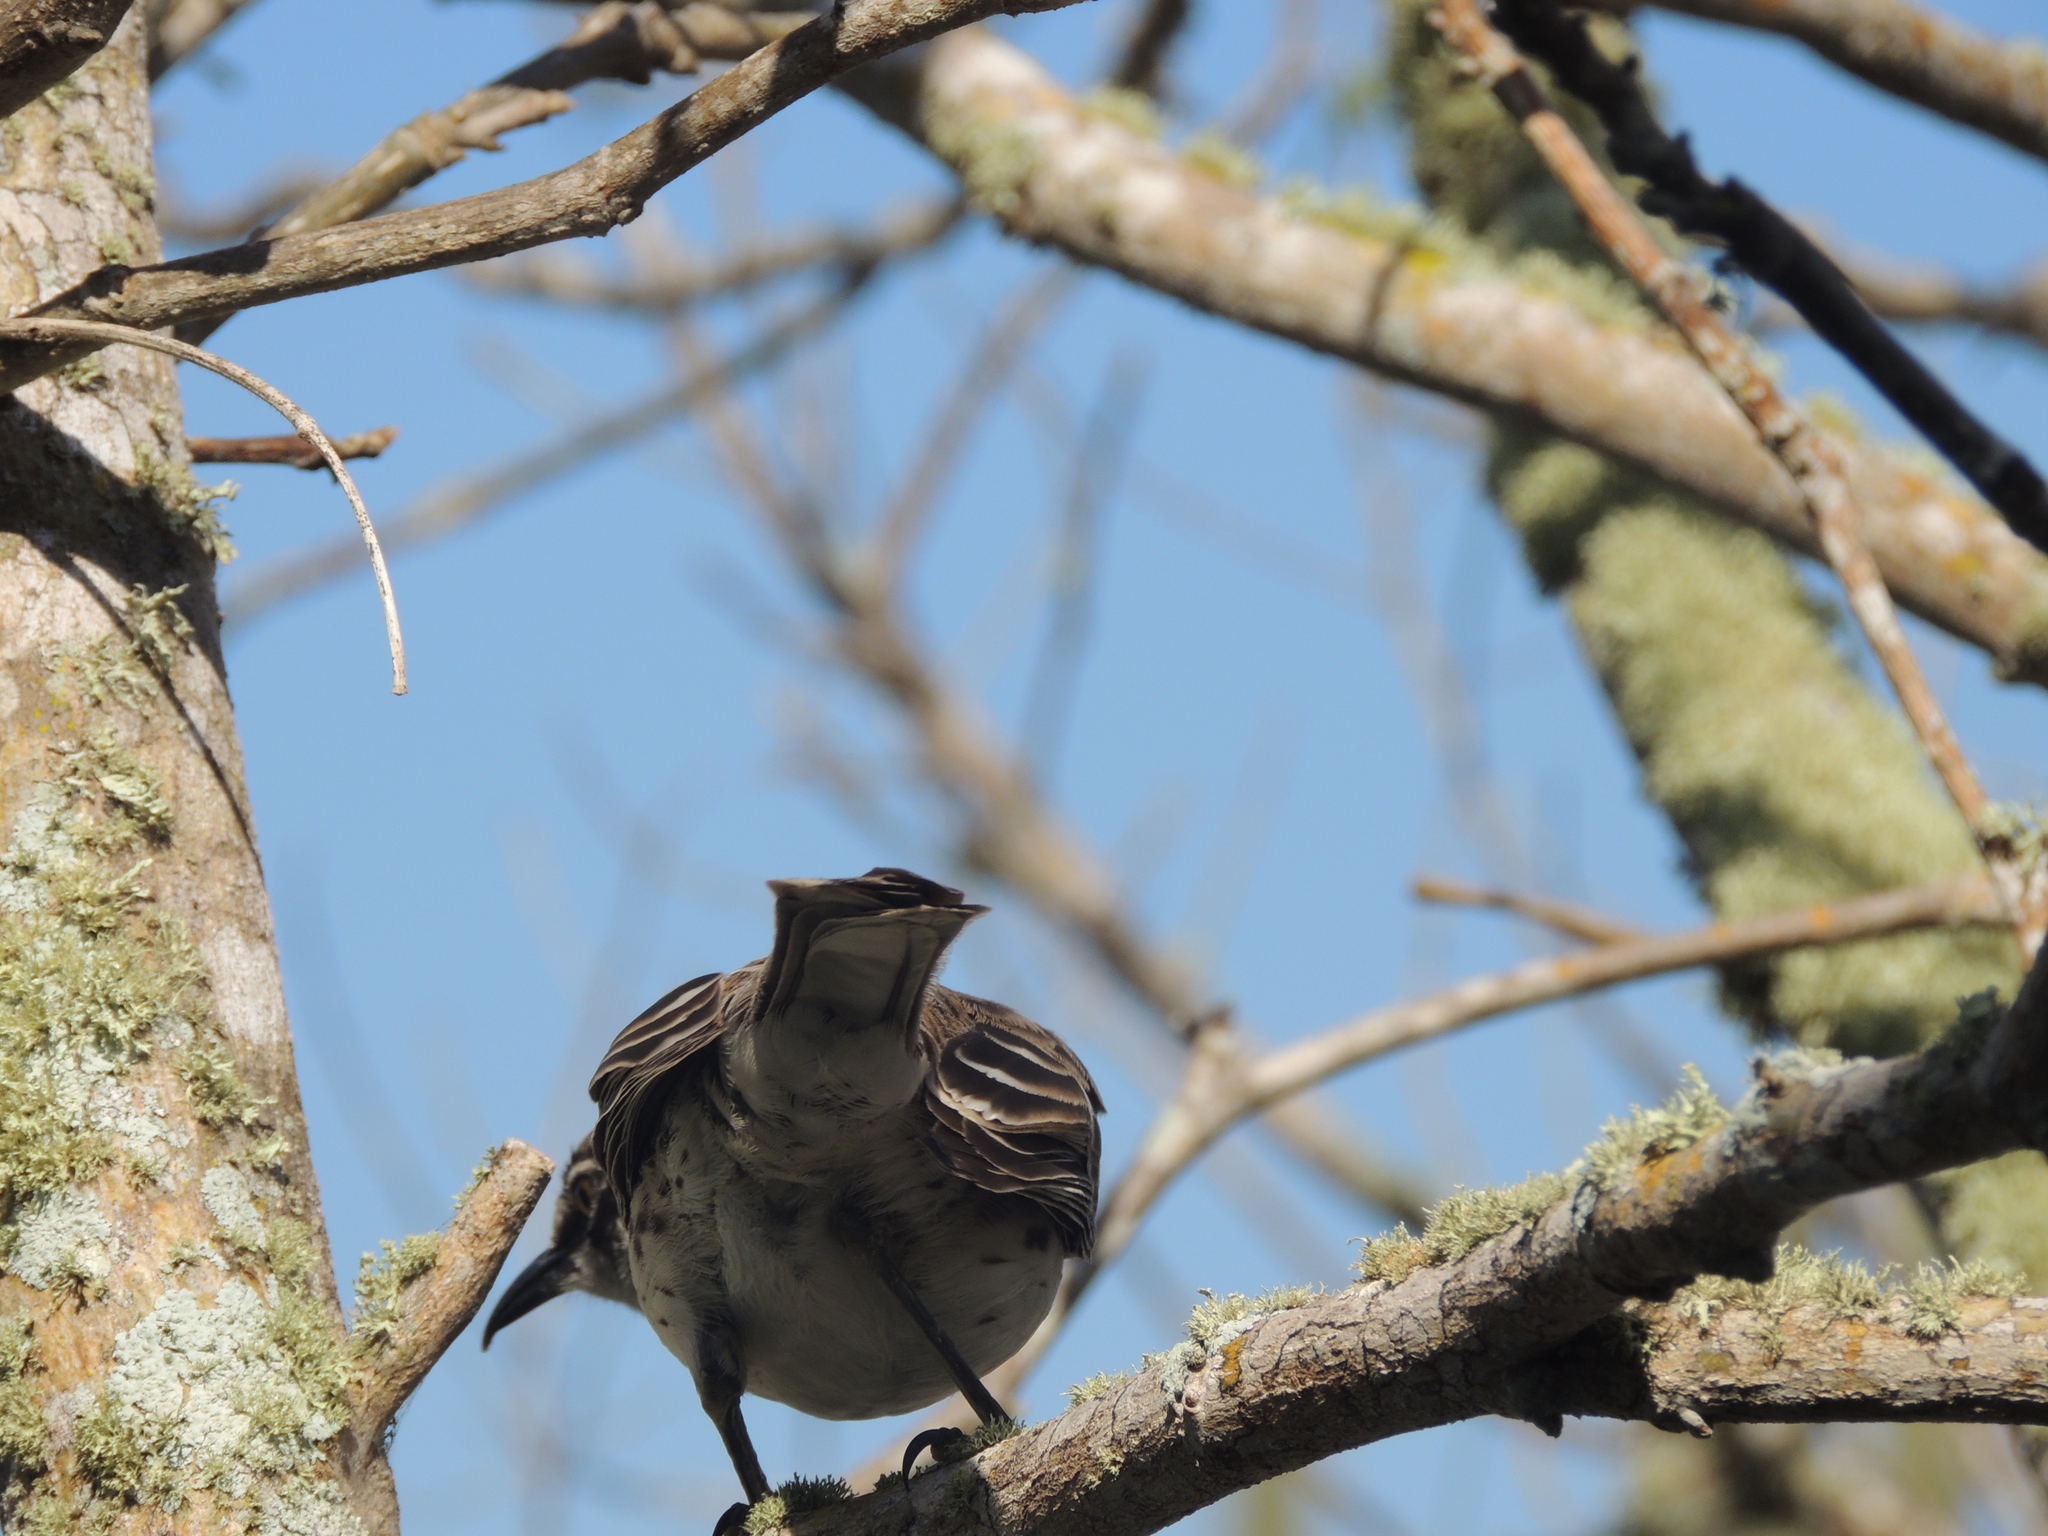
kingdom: Animalia
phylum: Chordata
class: Aves
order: Passeriformes
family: Mimidae
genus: Mimus
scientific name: Mimus parvulus
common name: Galapagos mockingbird
